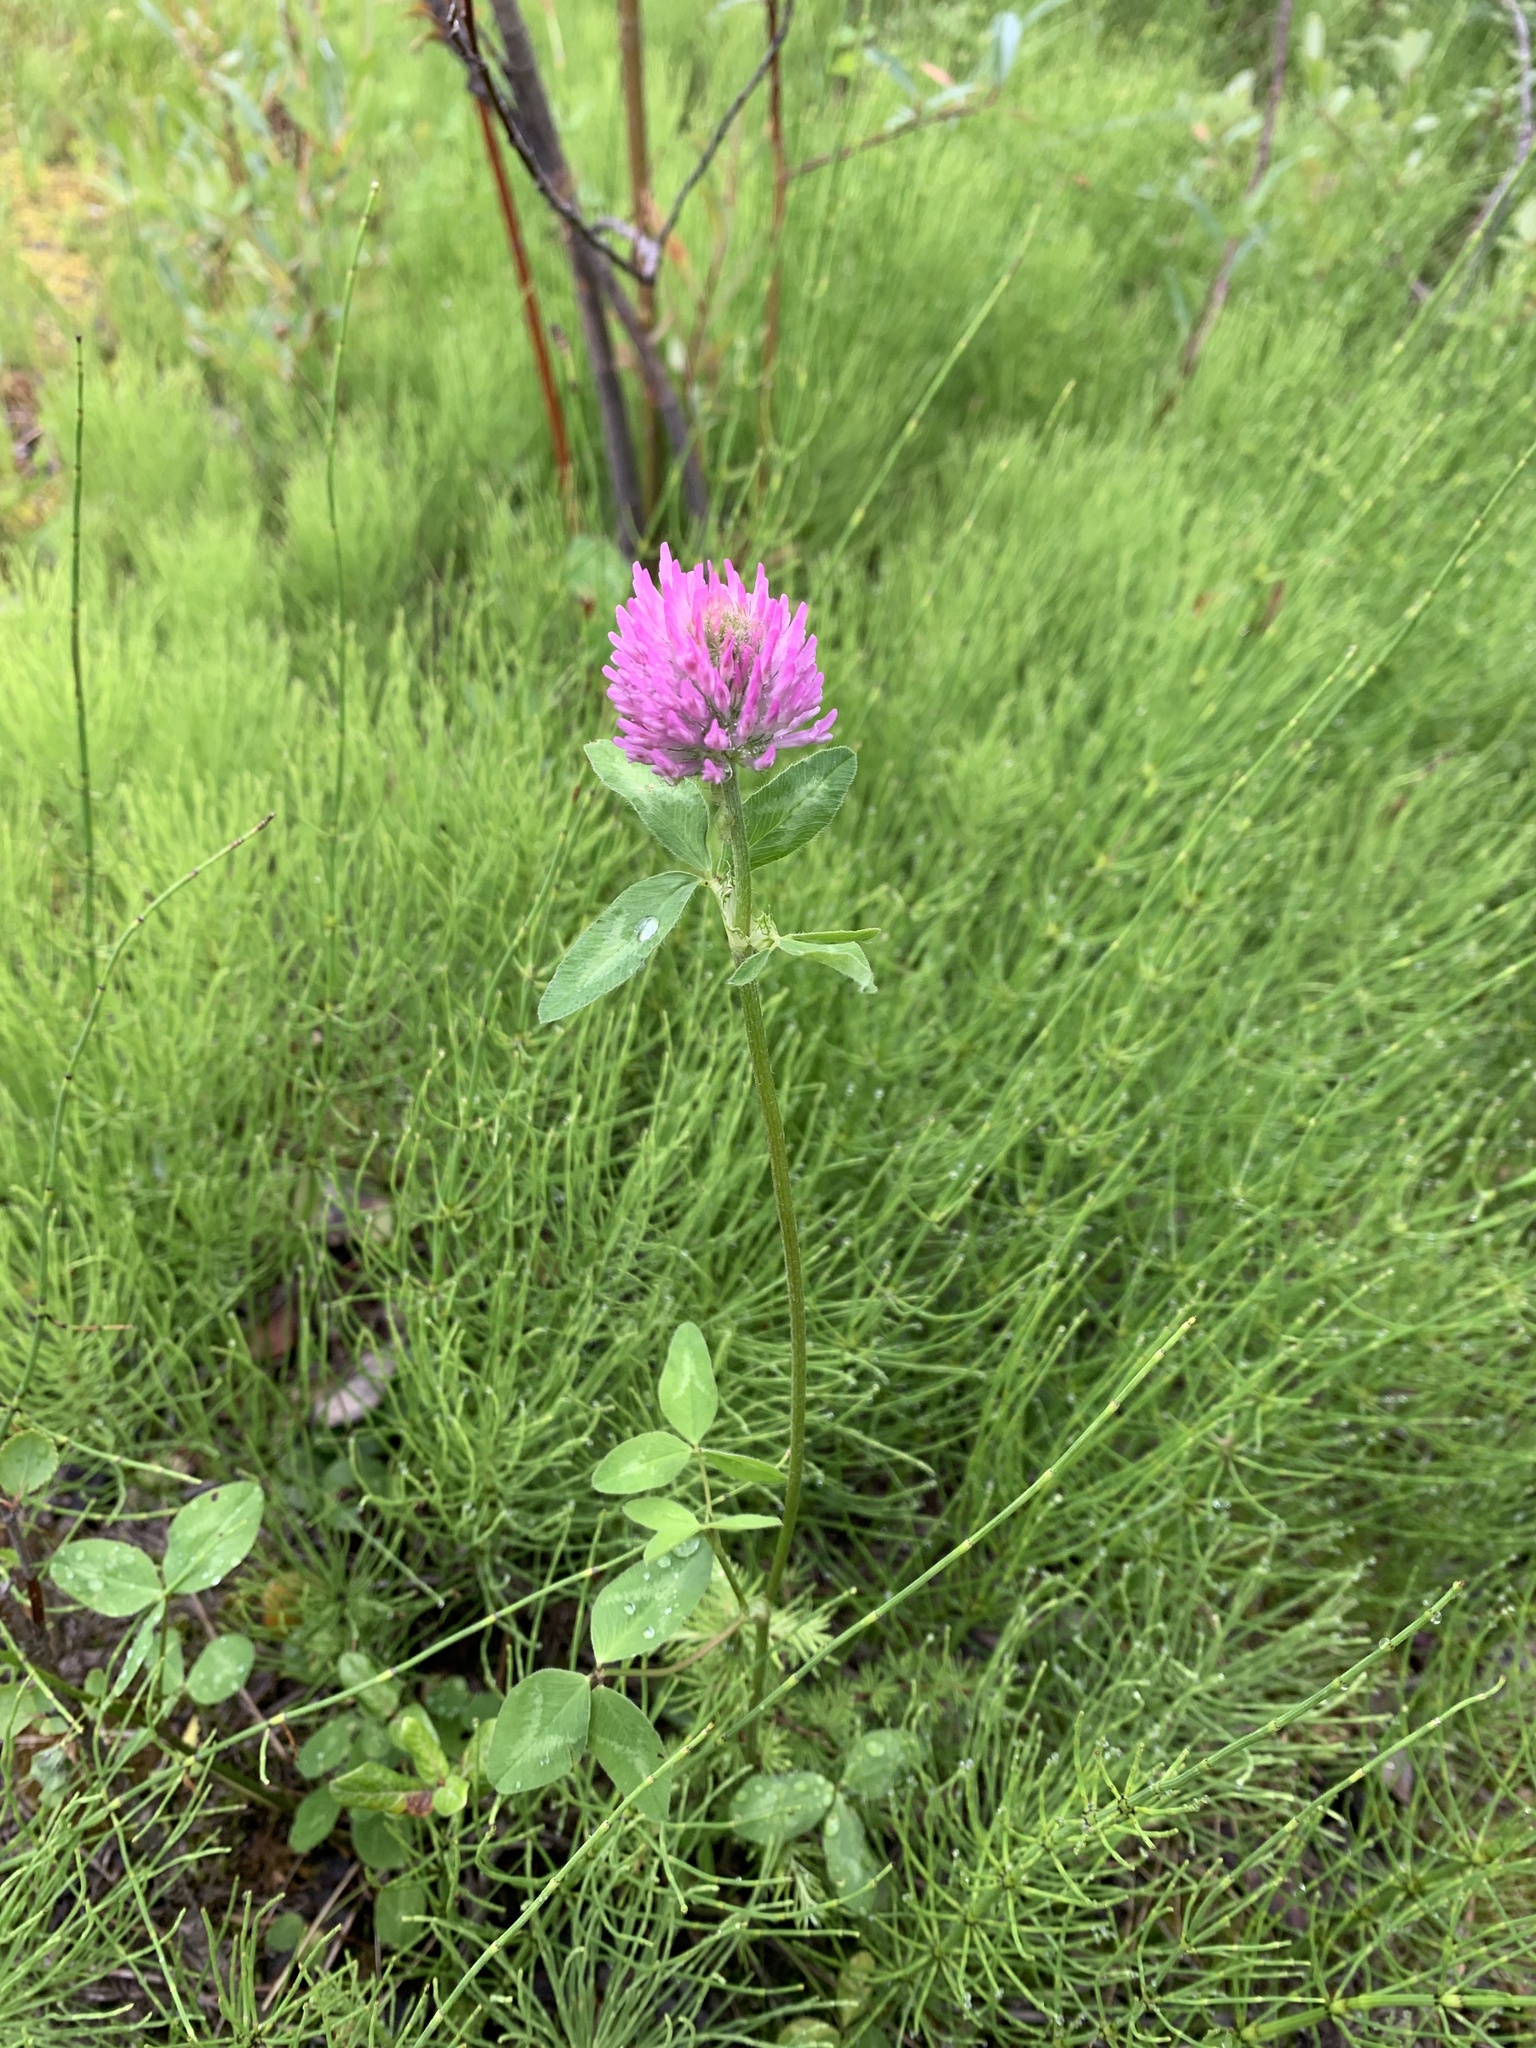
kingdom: Plantae
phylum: Tracheophyta
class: Magnoliopsida
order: Fabales
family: Fabaceae
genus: Trifolium
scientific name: Trifolium pratense
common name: Red clover
